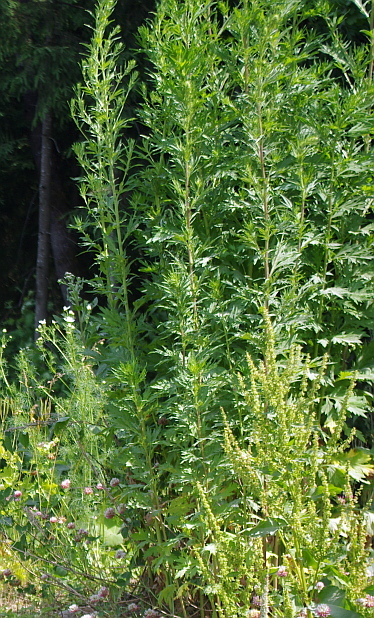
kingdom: Plantae
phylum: Tracheophyta
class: Magnoliopsida
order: Asterales
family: Asteraceae
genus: Artemisia
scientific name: Artemisia vulgaris
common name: Mugwort
